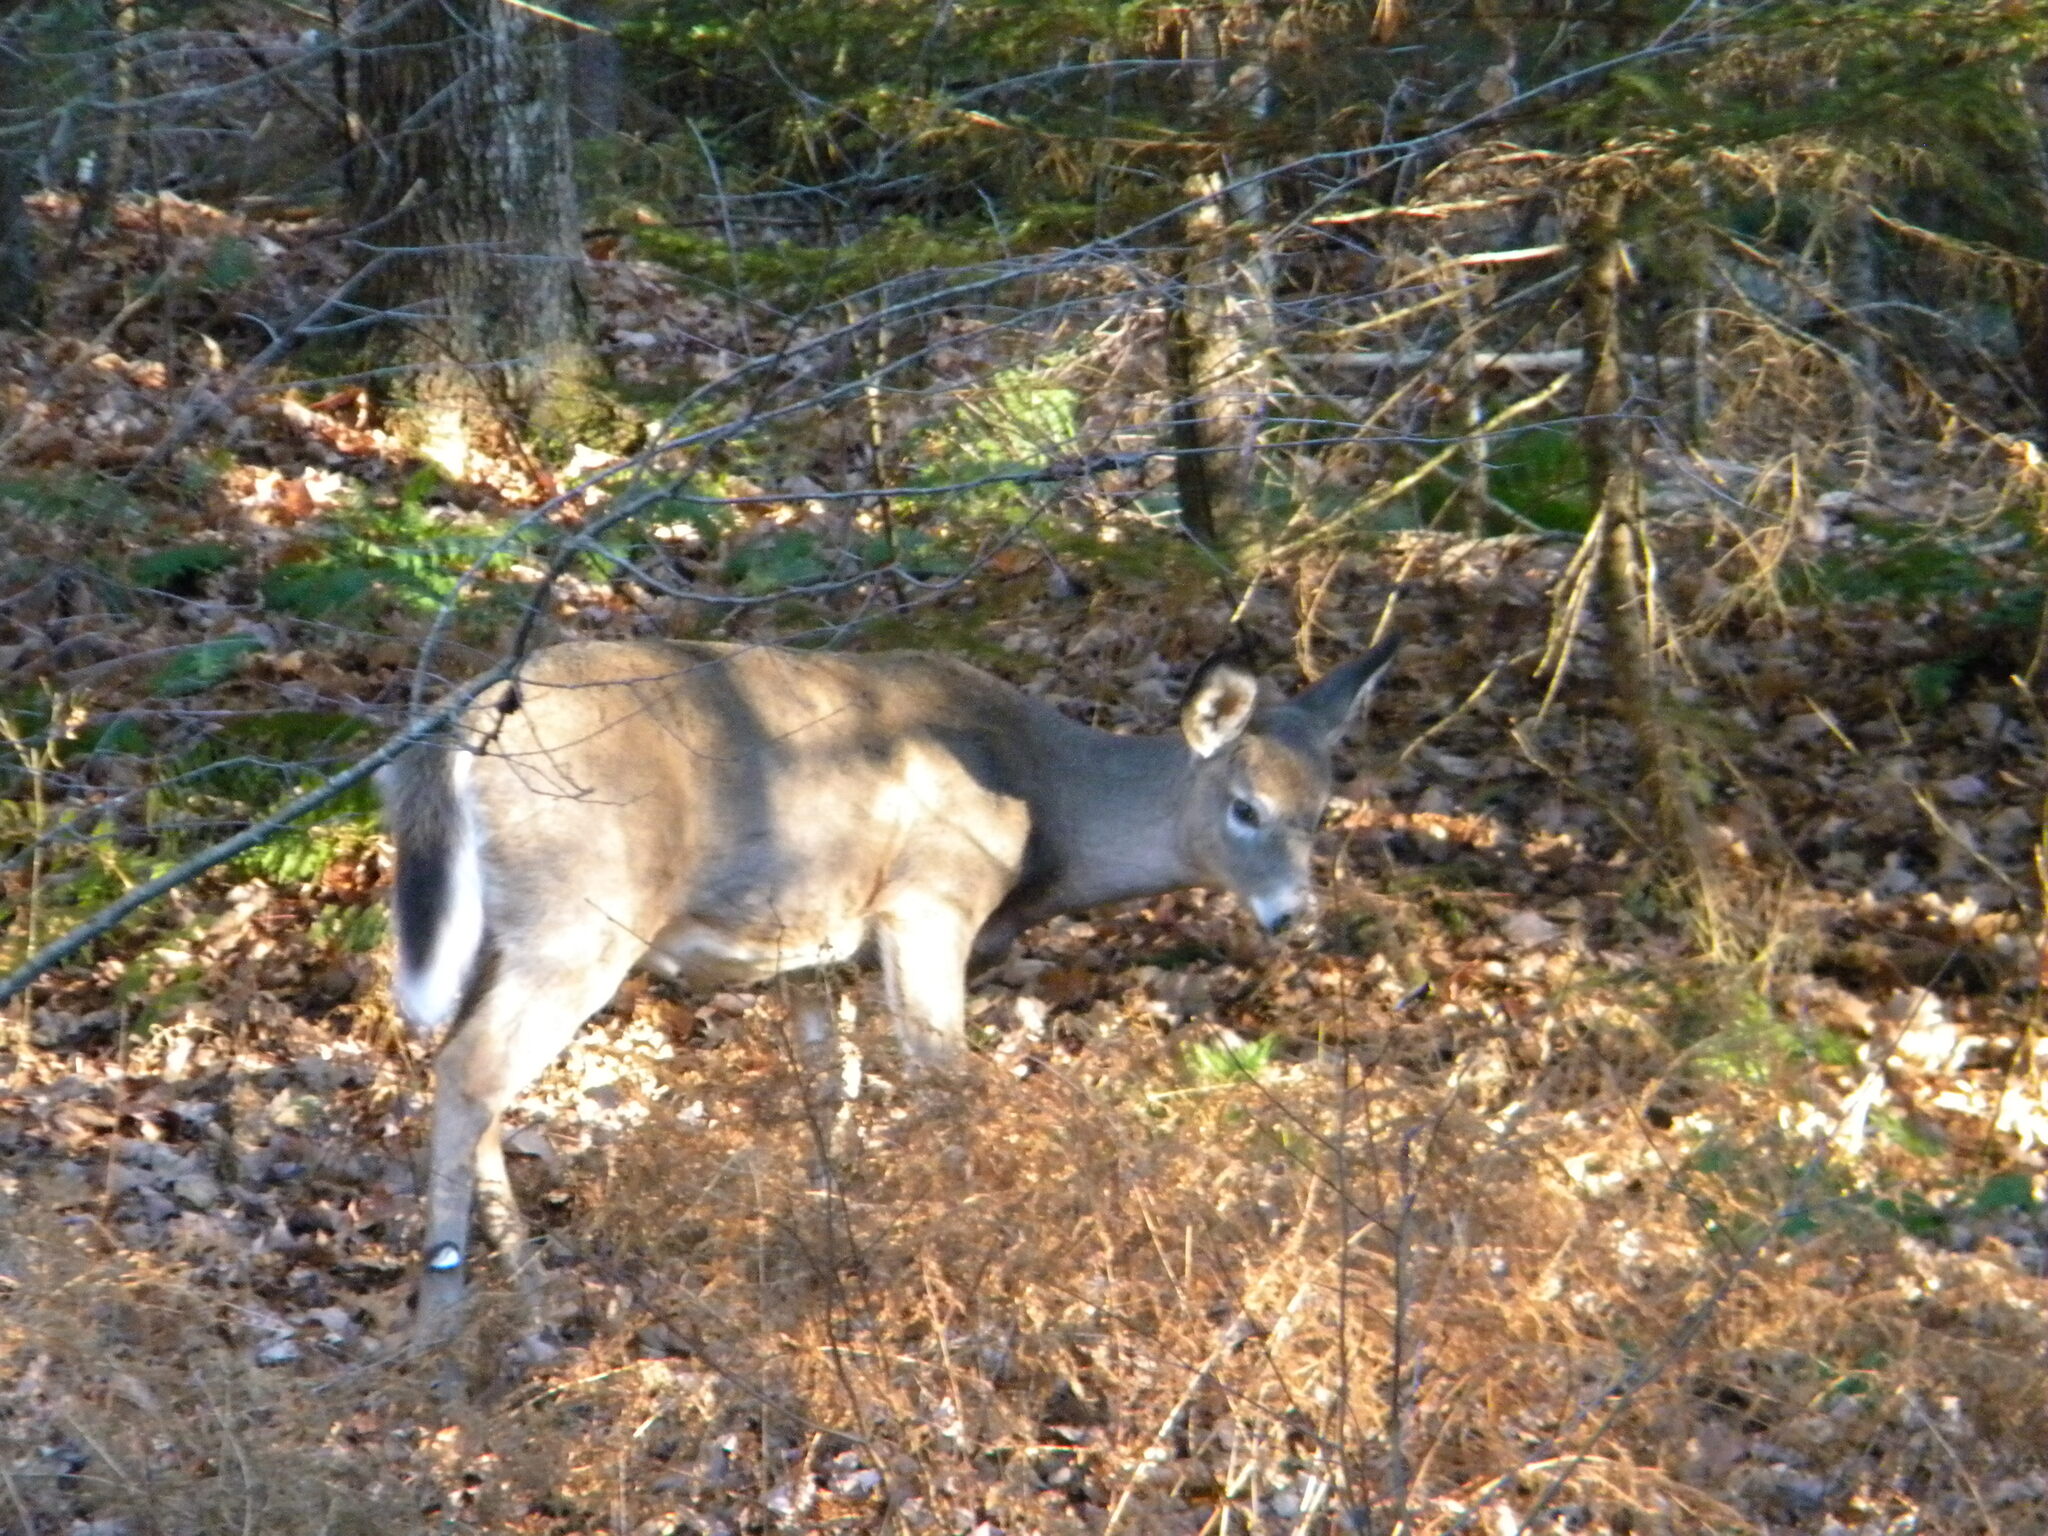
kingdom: Animalia
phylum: Chordata
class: Mammalia
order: Artiodactyla
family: Cervidae
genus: Odocoileus
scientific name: Odocoileus virginianus
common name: White-tailed deer
